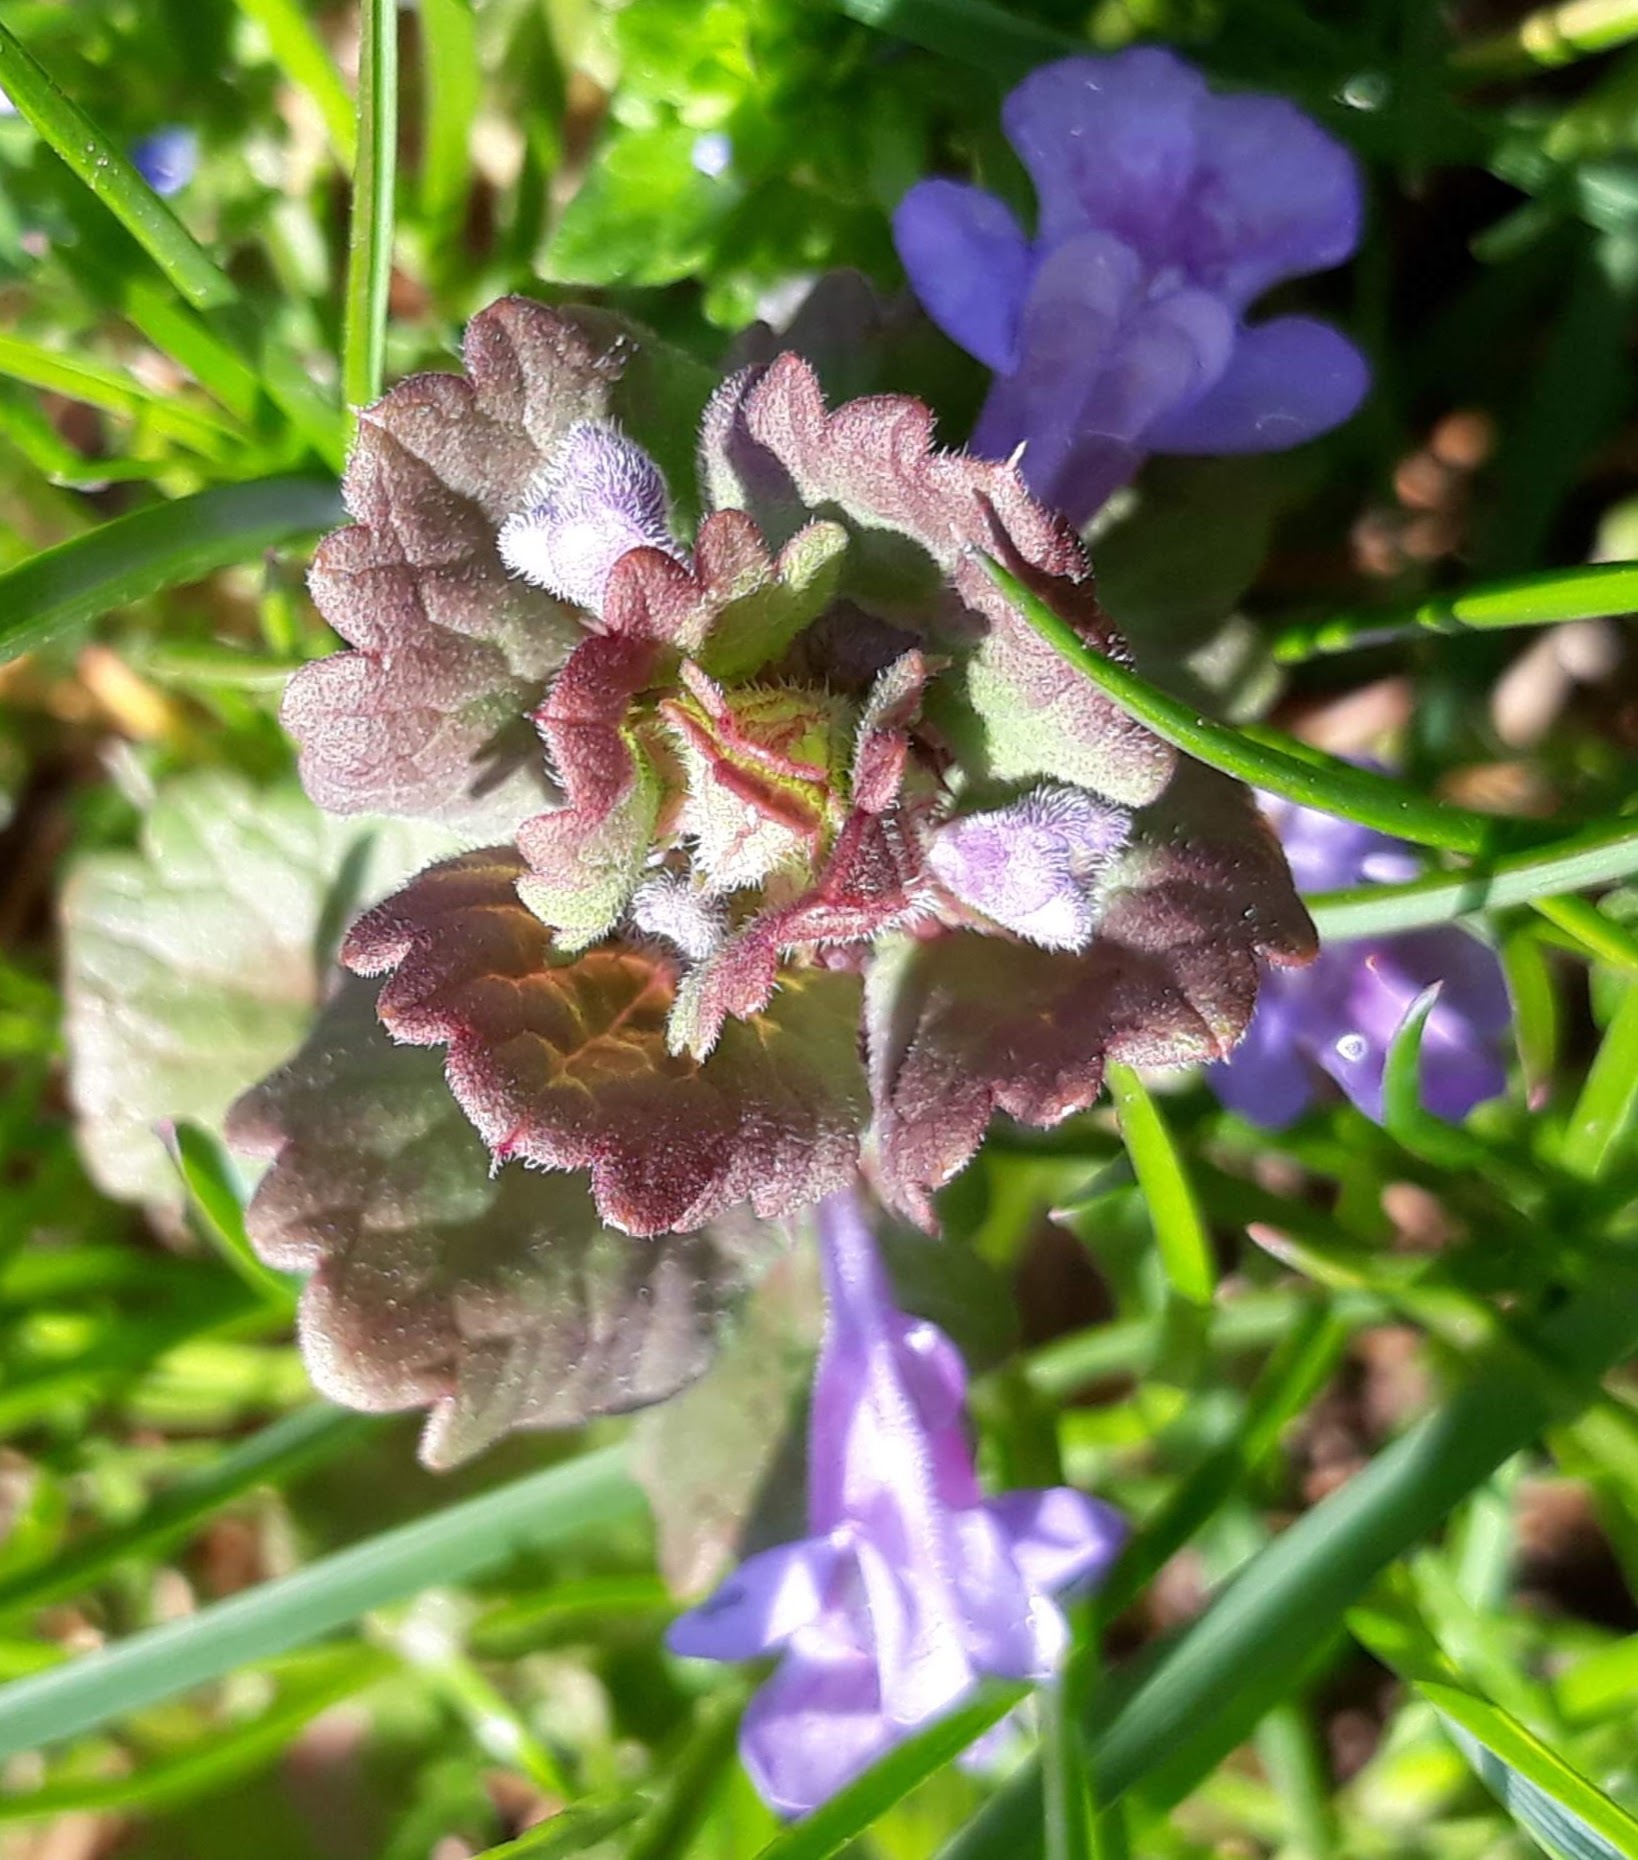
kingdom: Plantae
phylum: Tracheophyta
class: Magnoliopsida
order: Lamiales
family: Lamiaceae
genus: Glechoma
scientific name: Glechoma hederacea
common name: Ground ivy
